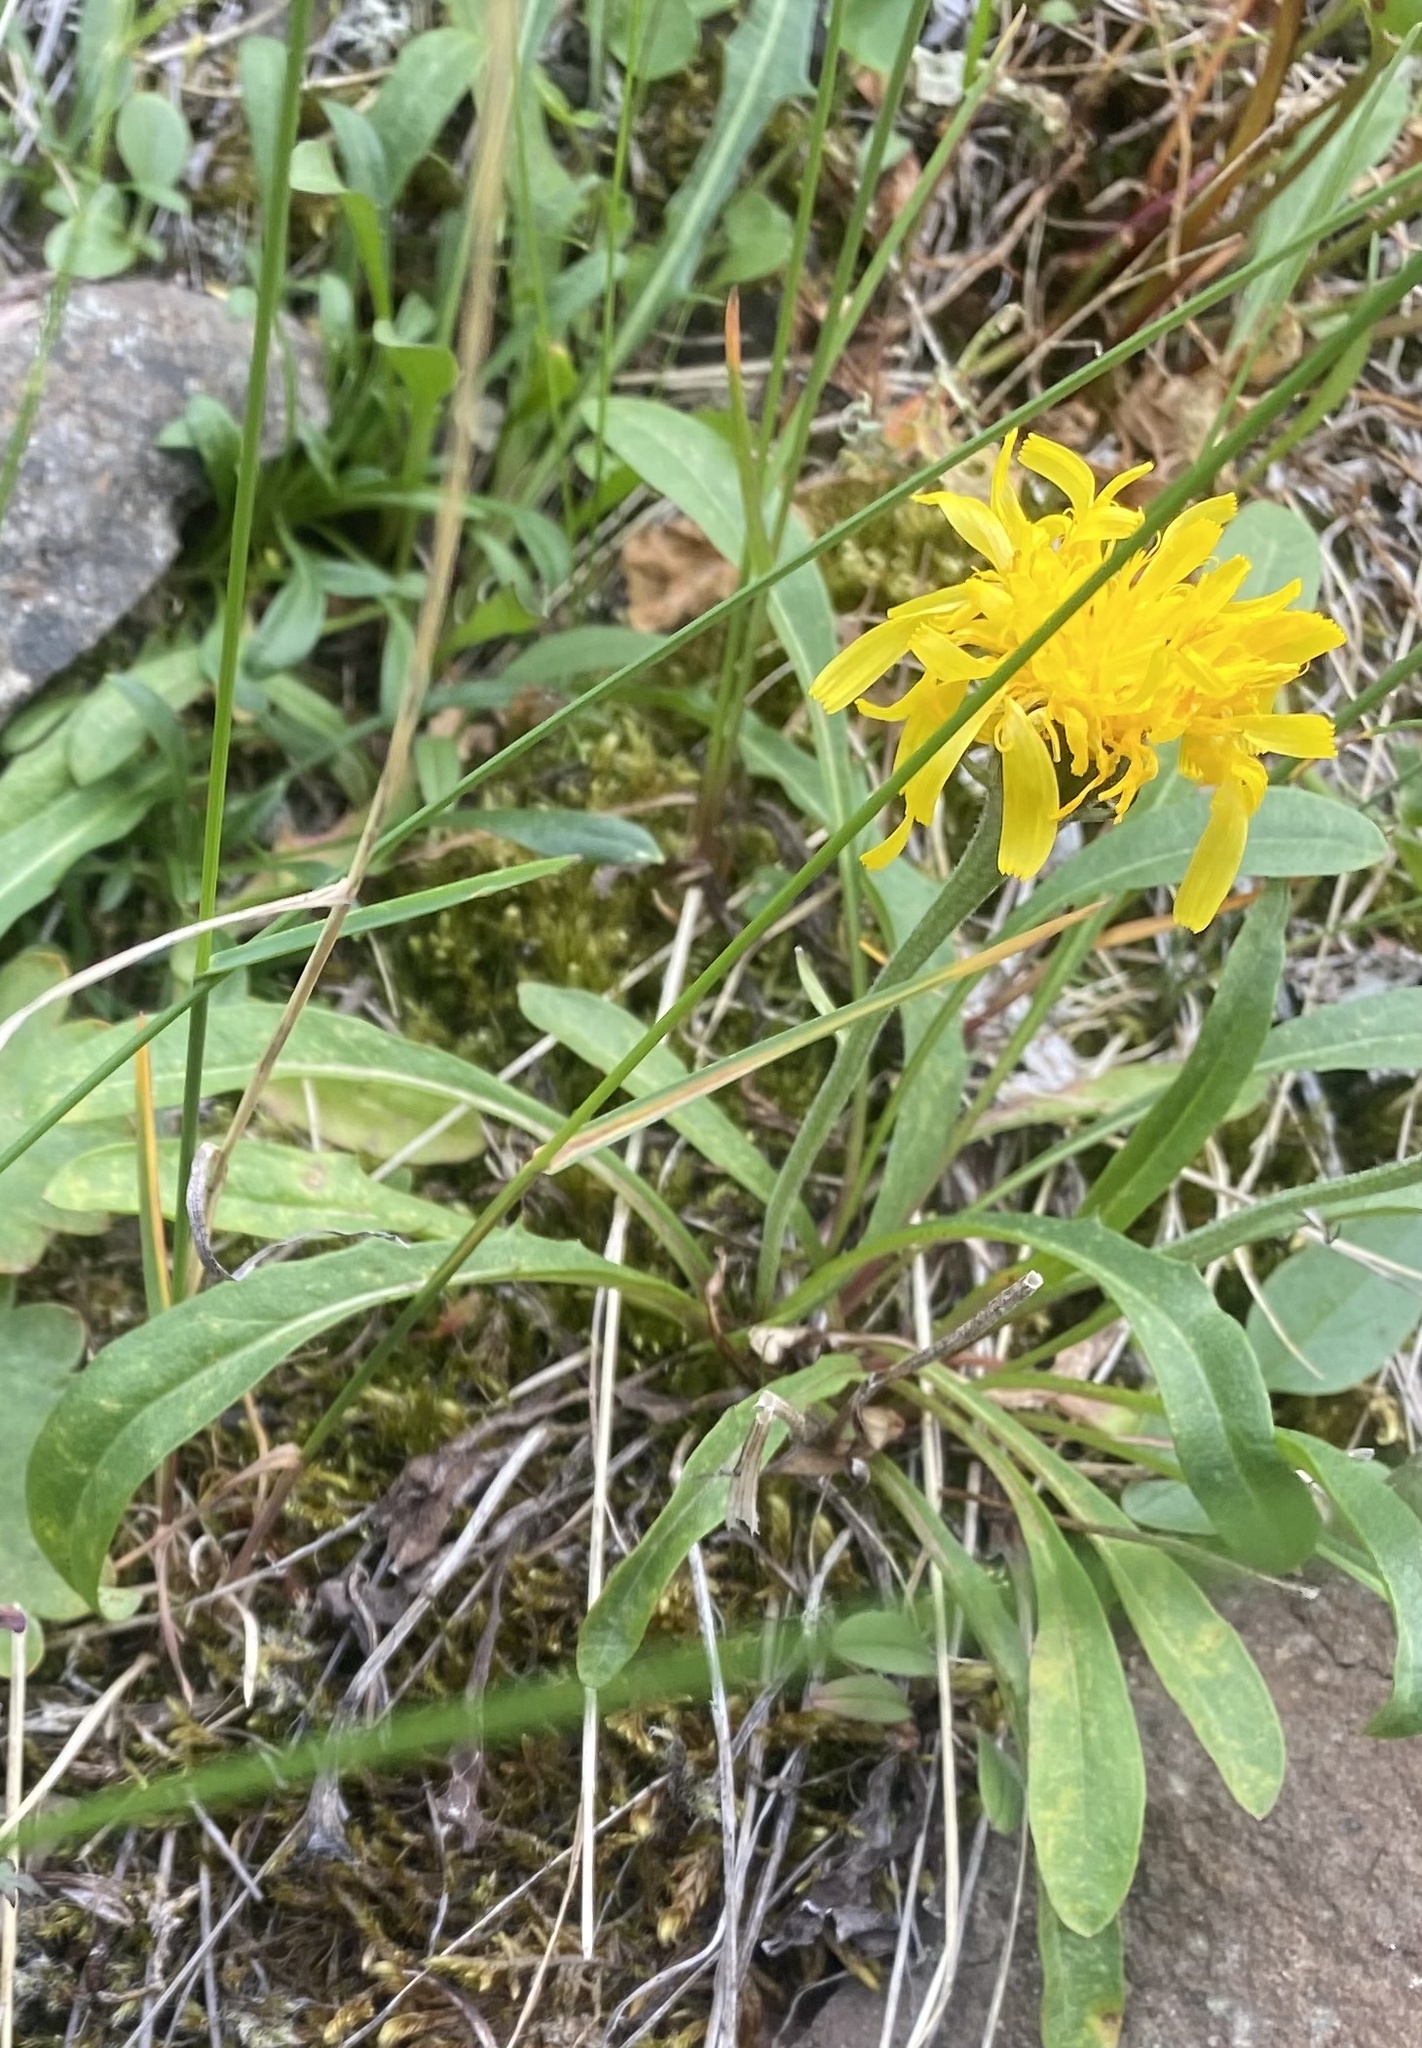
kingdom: Plantae
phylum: Tracheophyta
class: Magnoliopsida
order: Asterales
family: Asteraceae
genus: Crepis
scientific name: Crepis chrysantha
